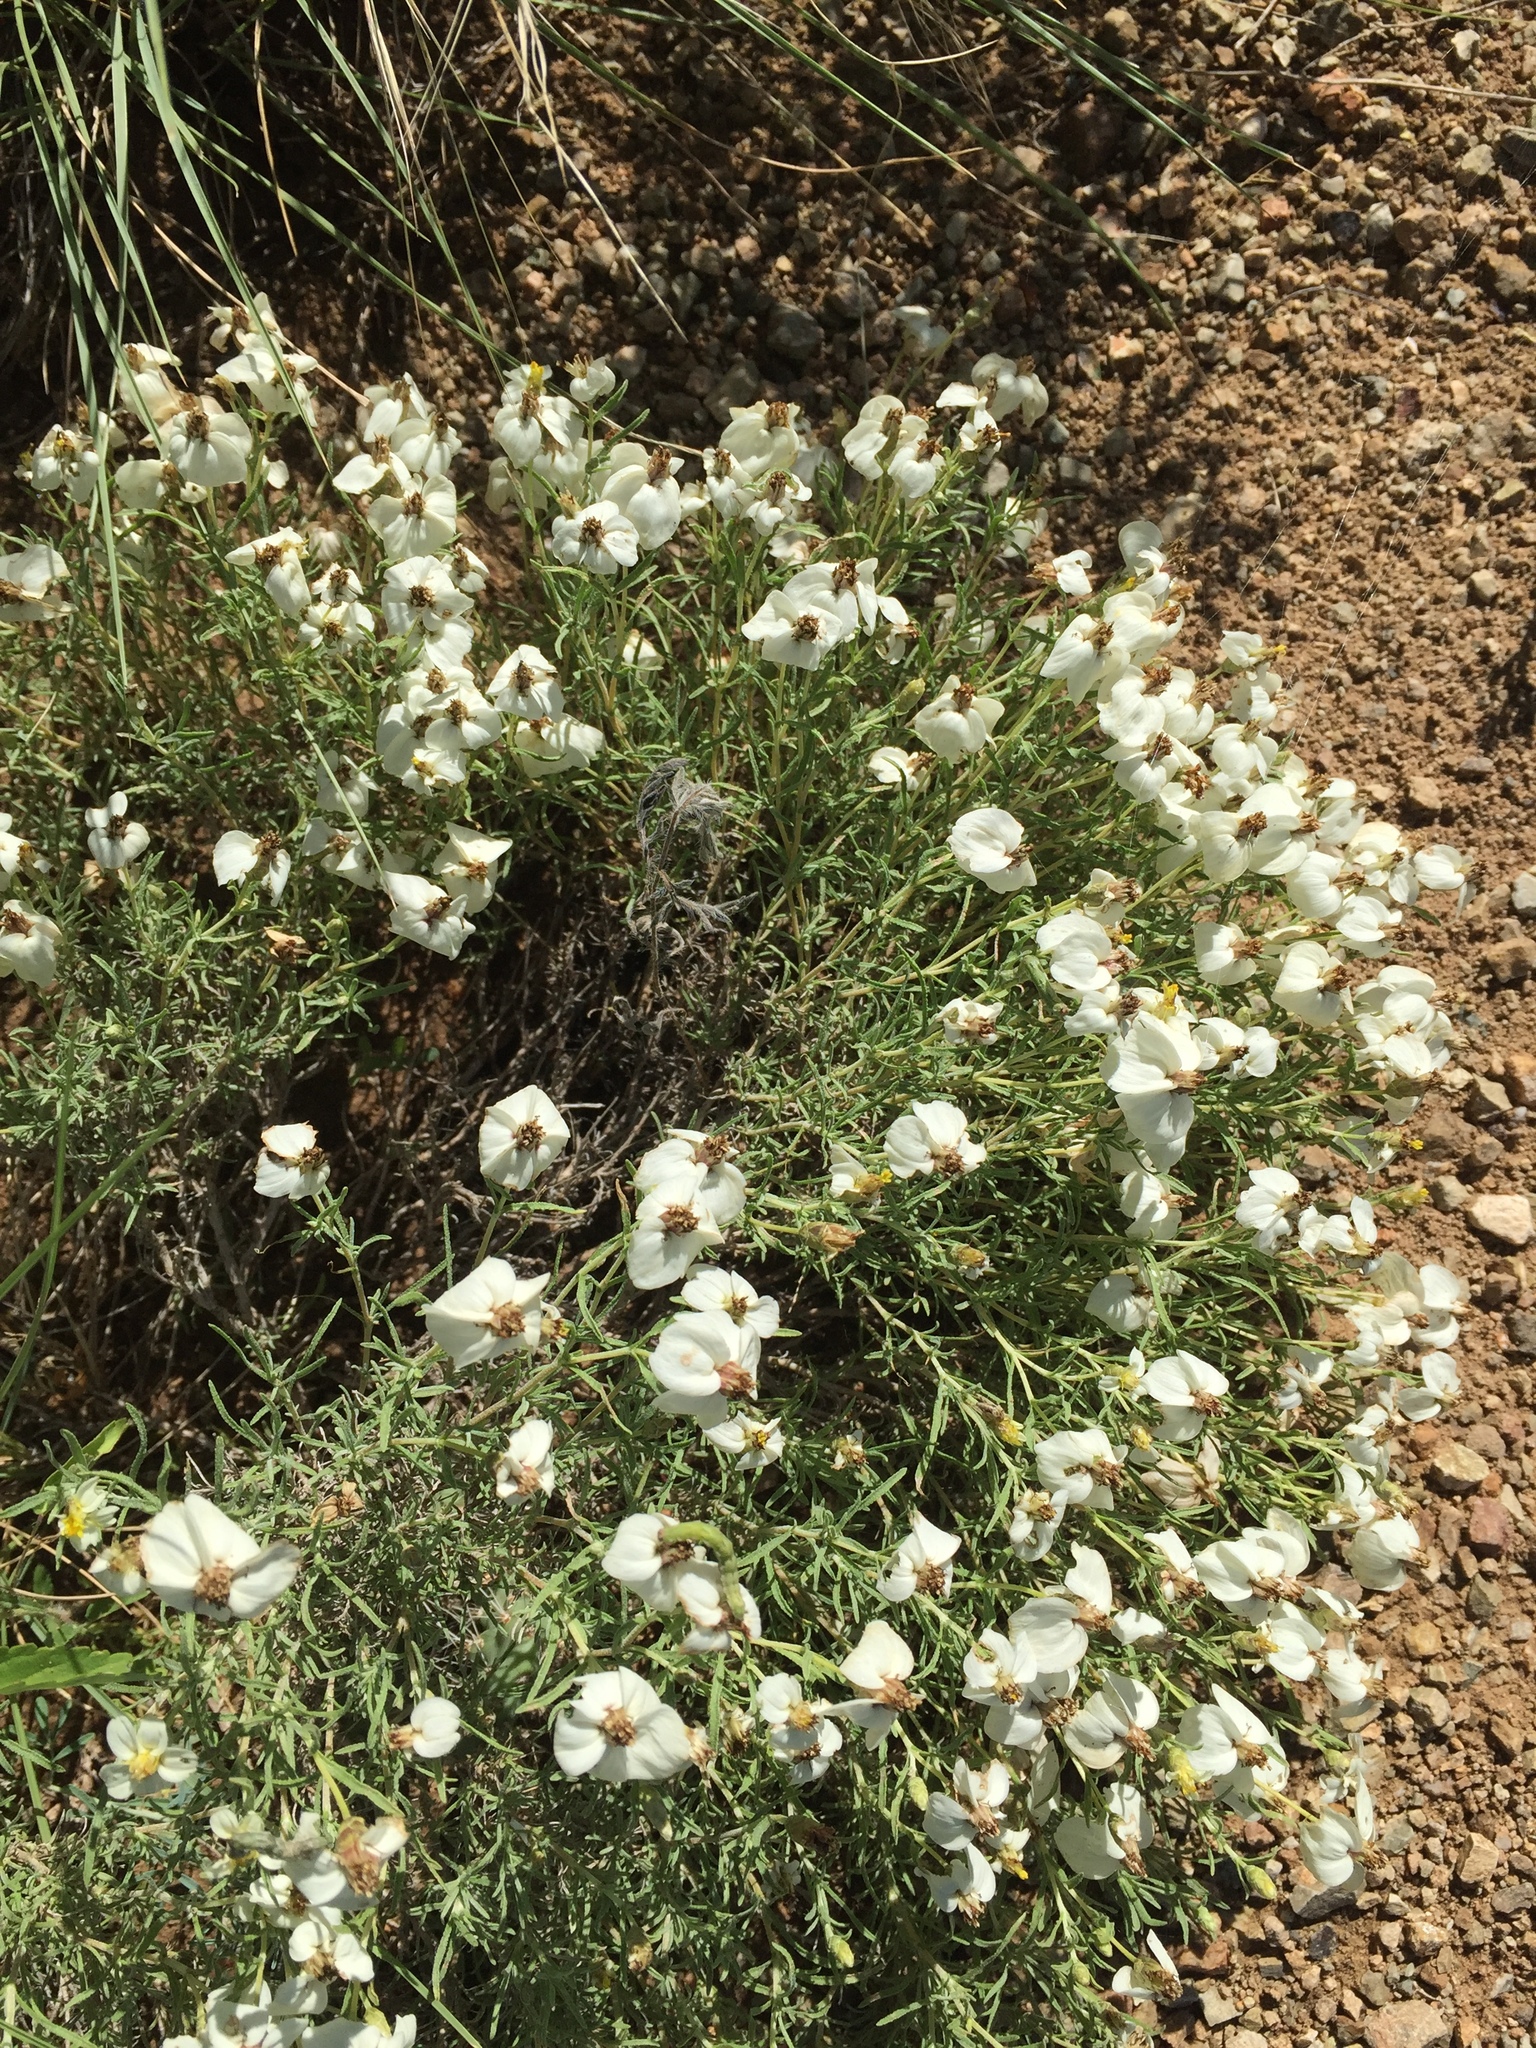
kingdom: Plantae
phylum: Tracheophyta
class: Magnoliopsida
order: Asterales
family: Asteraceae
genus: Zinnia
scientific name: Zinnia acerosa
